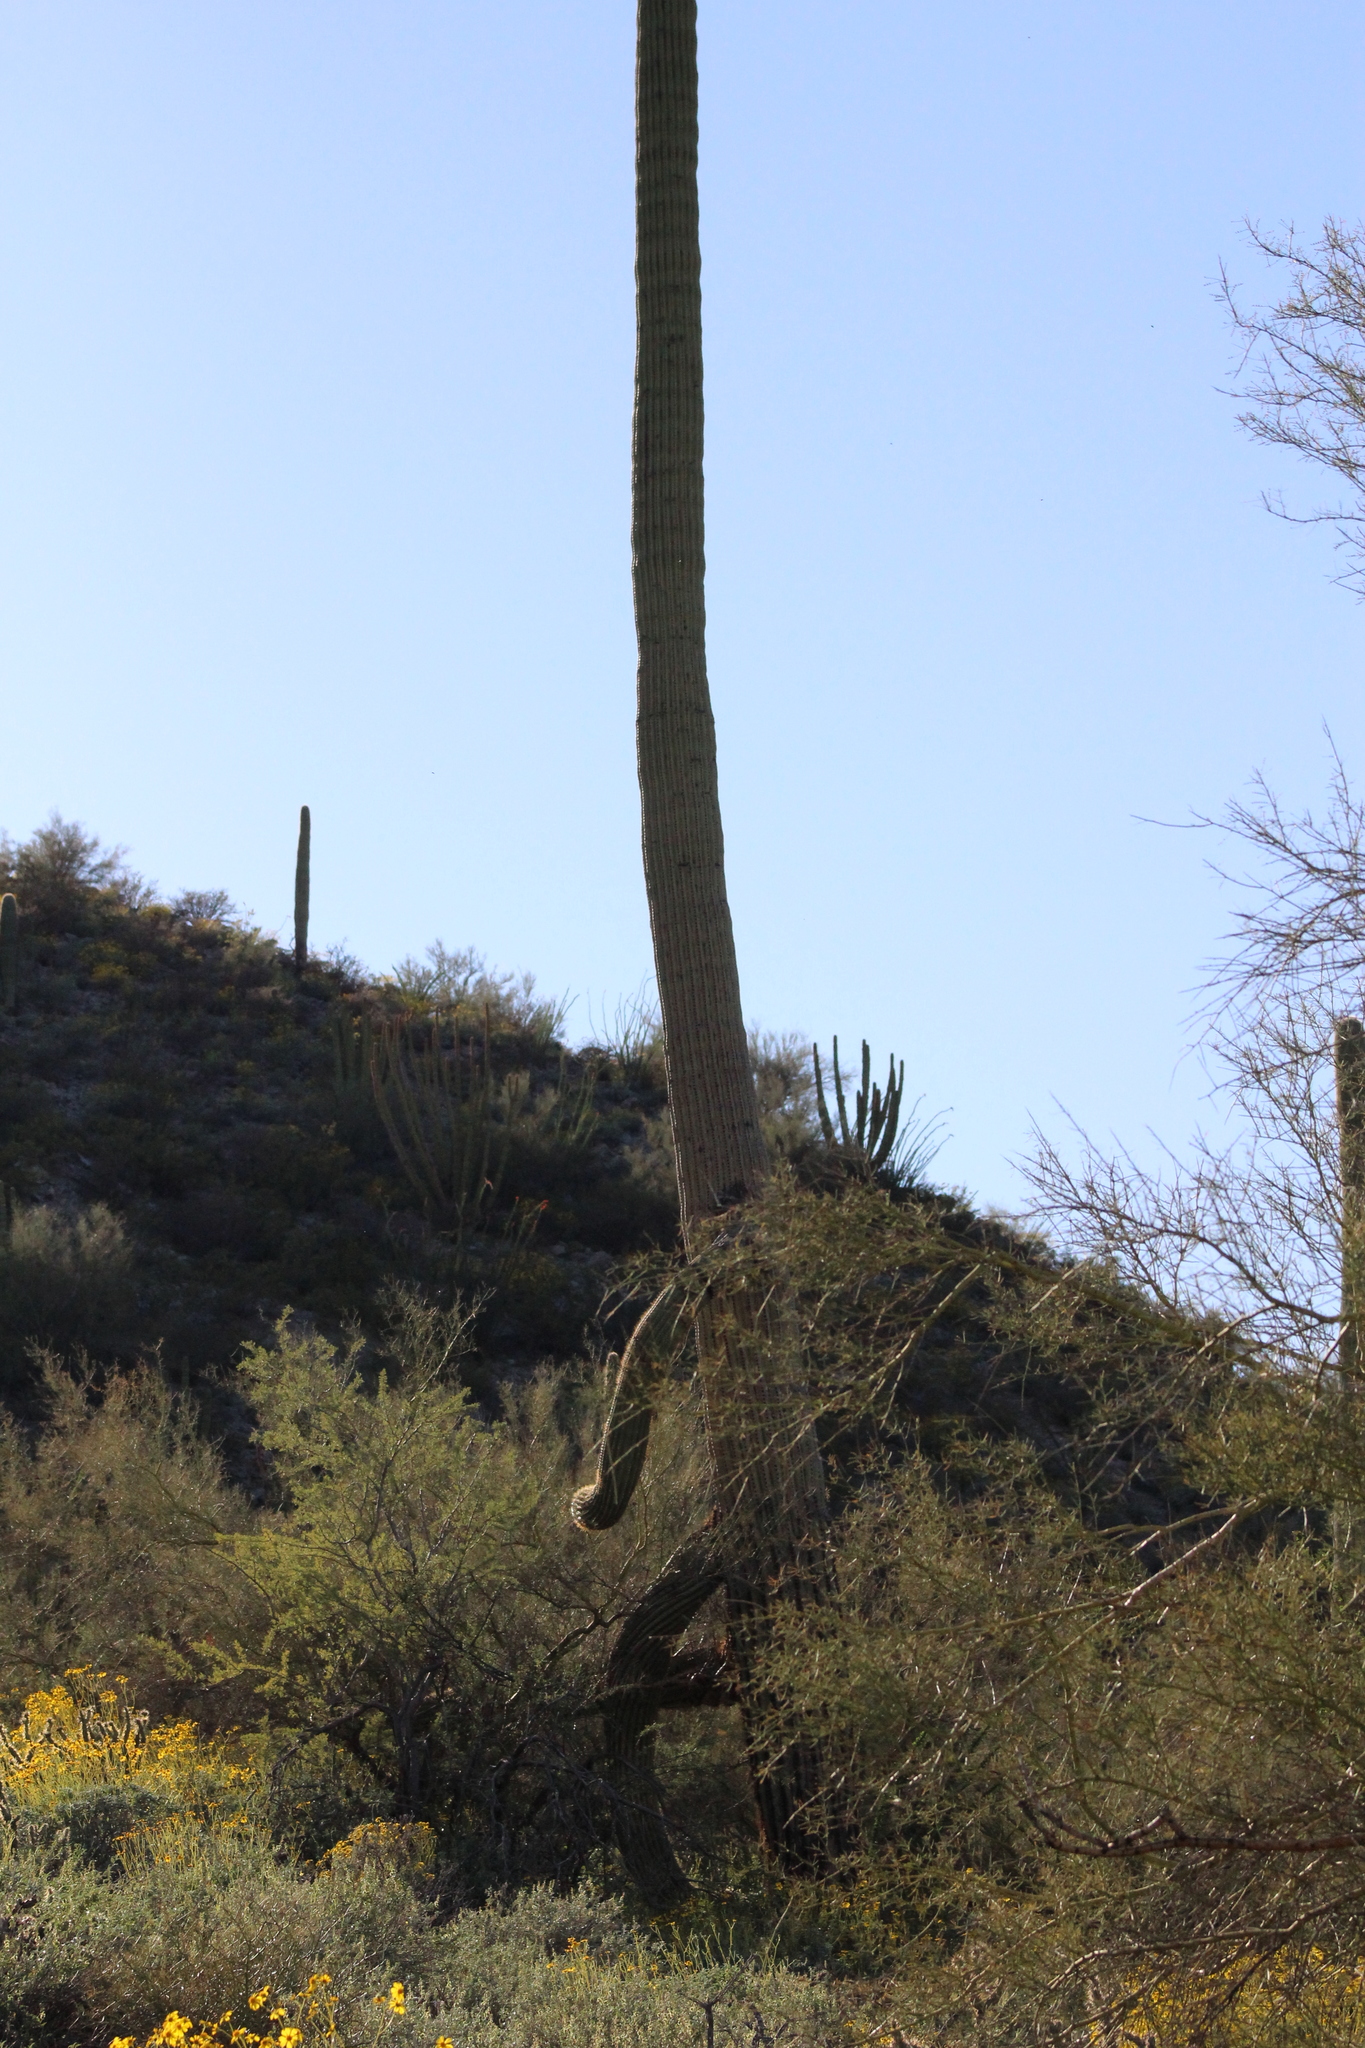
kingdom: Plantae
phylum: Tracheophyta
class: Magnoliopsida
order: Caryophyllales
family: Cactaceae
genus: Carnegiea
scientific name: Carnegiea gigantea
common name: Saguaro
